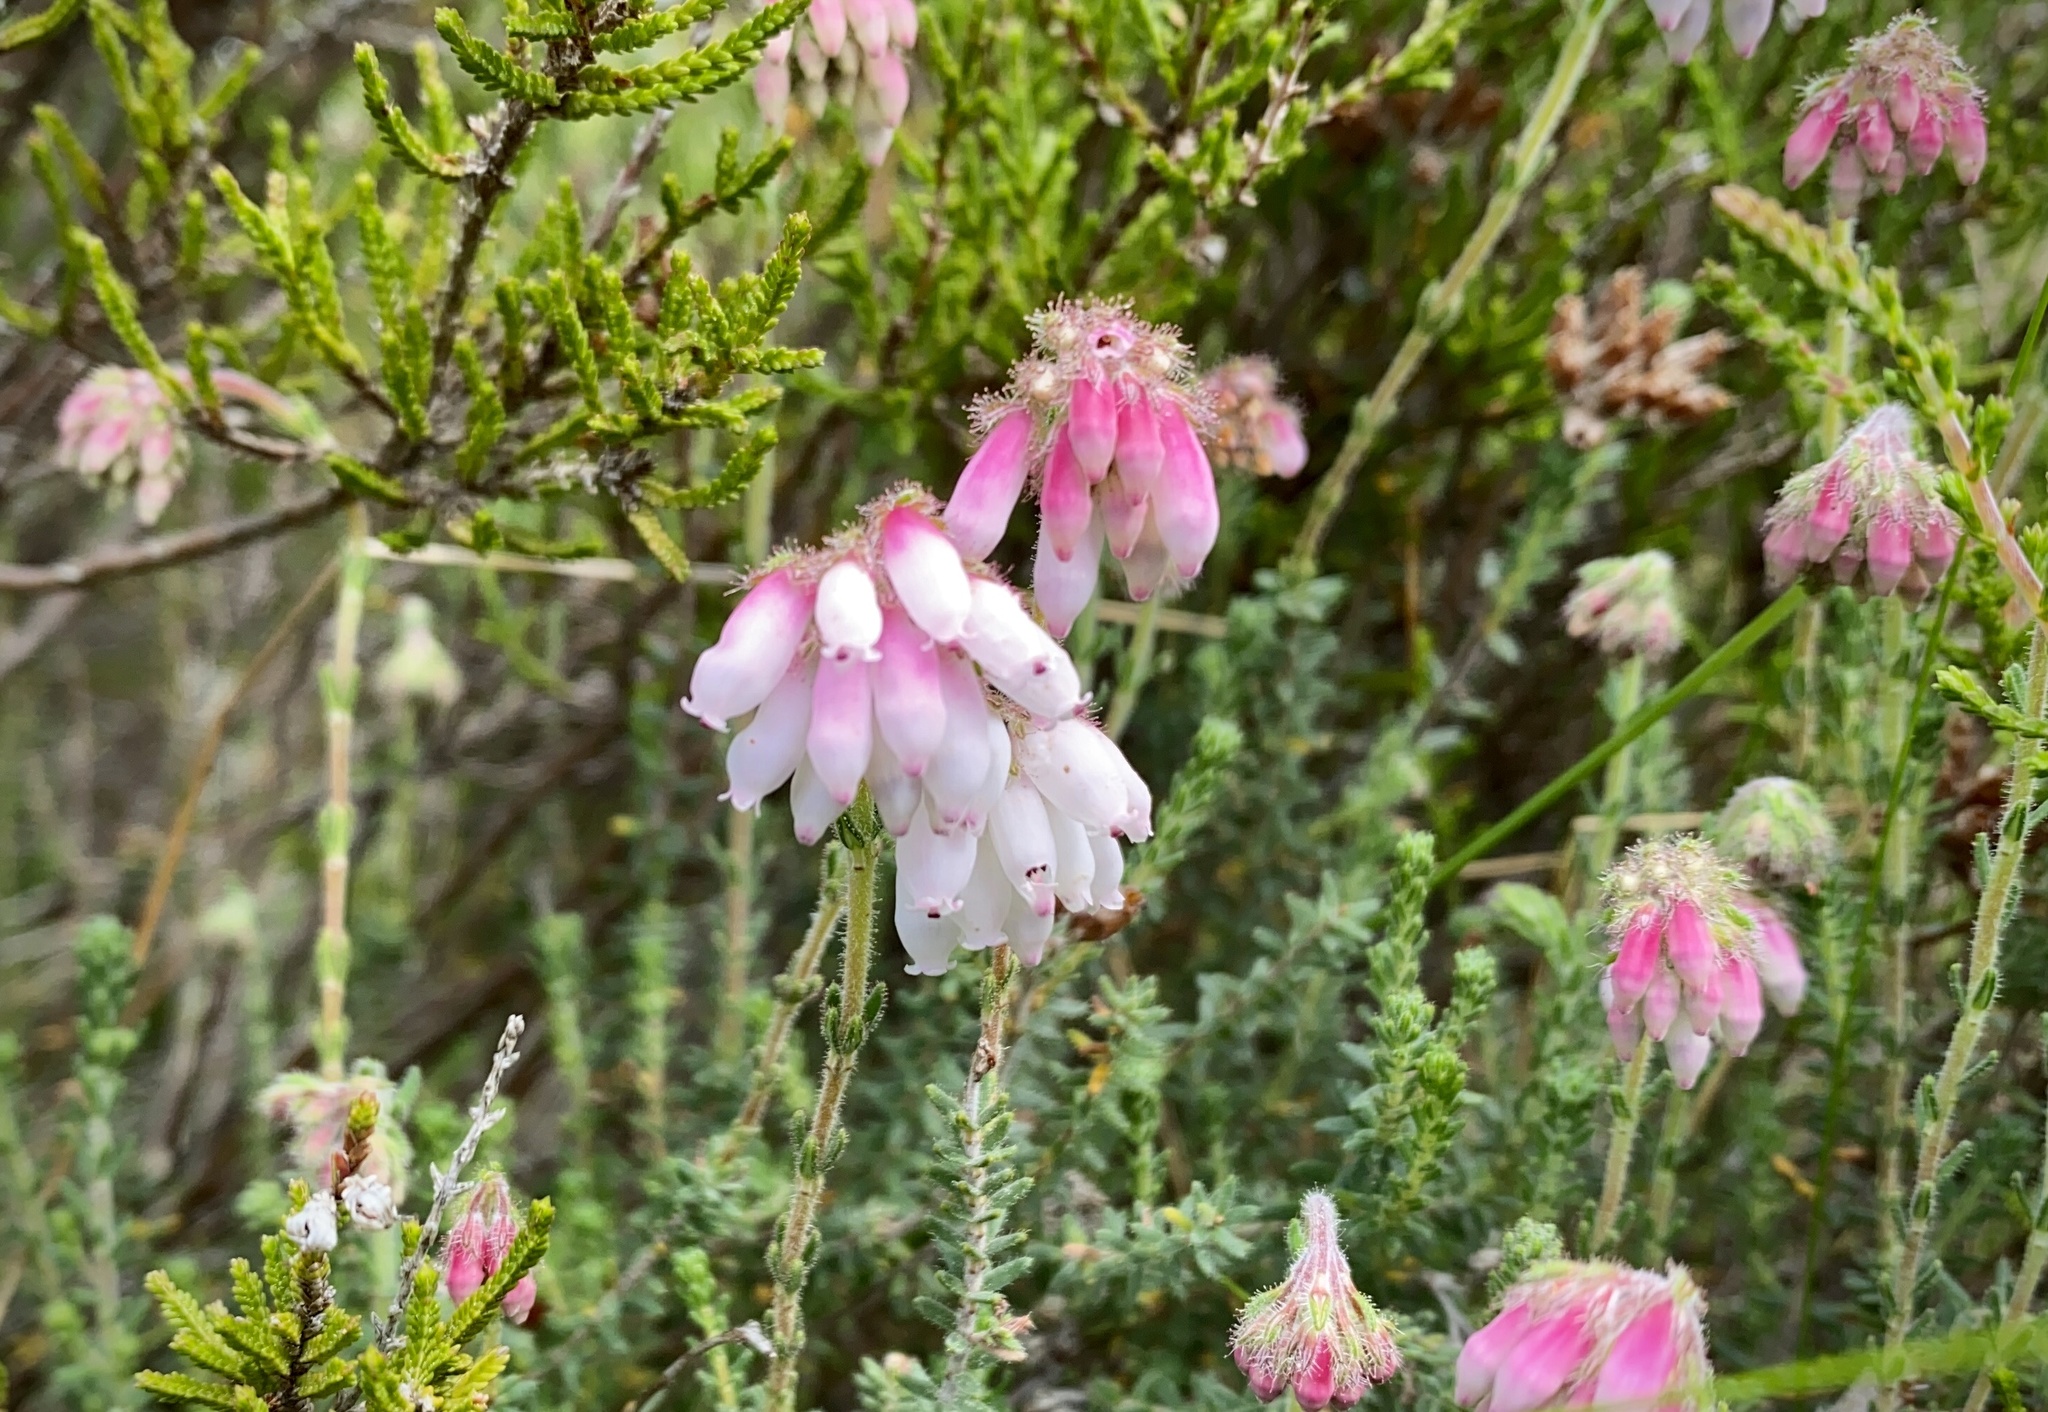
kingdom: Plantae
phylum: Tracheophyta
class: Magnoliopsida
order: Ericales
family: Ericaceae
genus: Erica
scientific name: Erica tetralix
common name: Cross-leaved heath
